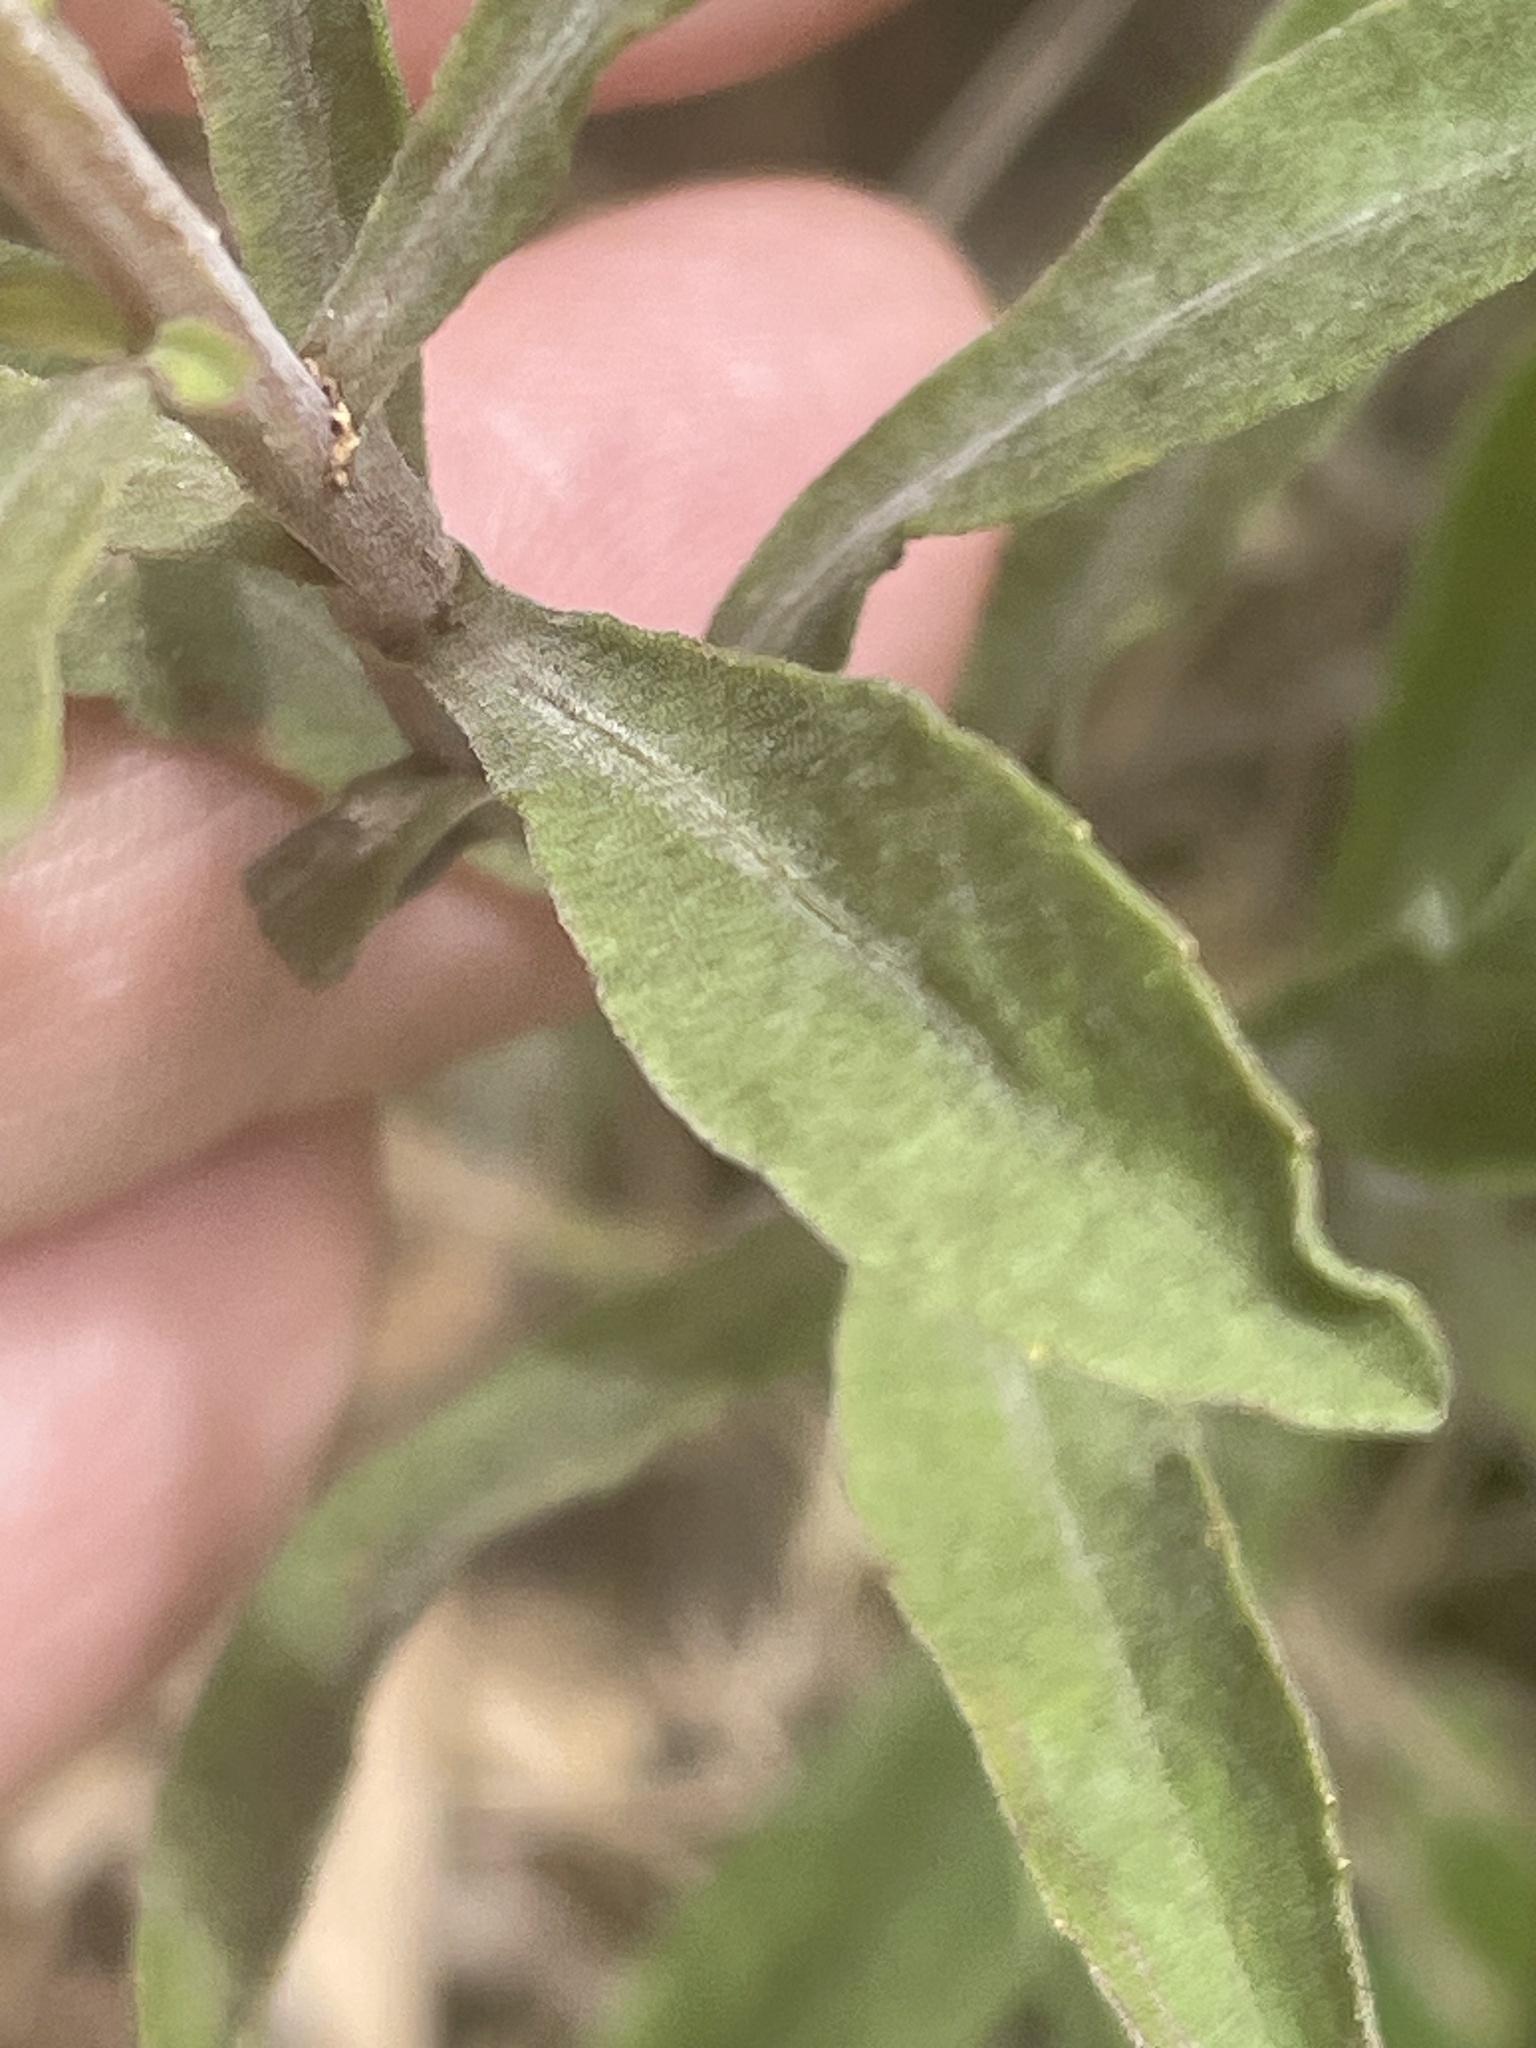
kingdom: Plantae
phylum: Tracheophyta
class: Magnoliopsida
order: Asterales
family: Asteraceae
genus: Solidago
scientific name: Solidago nemoralis
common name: Grey goldenrod
